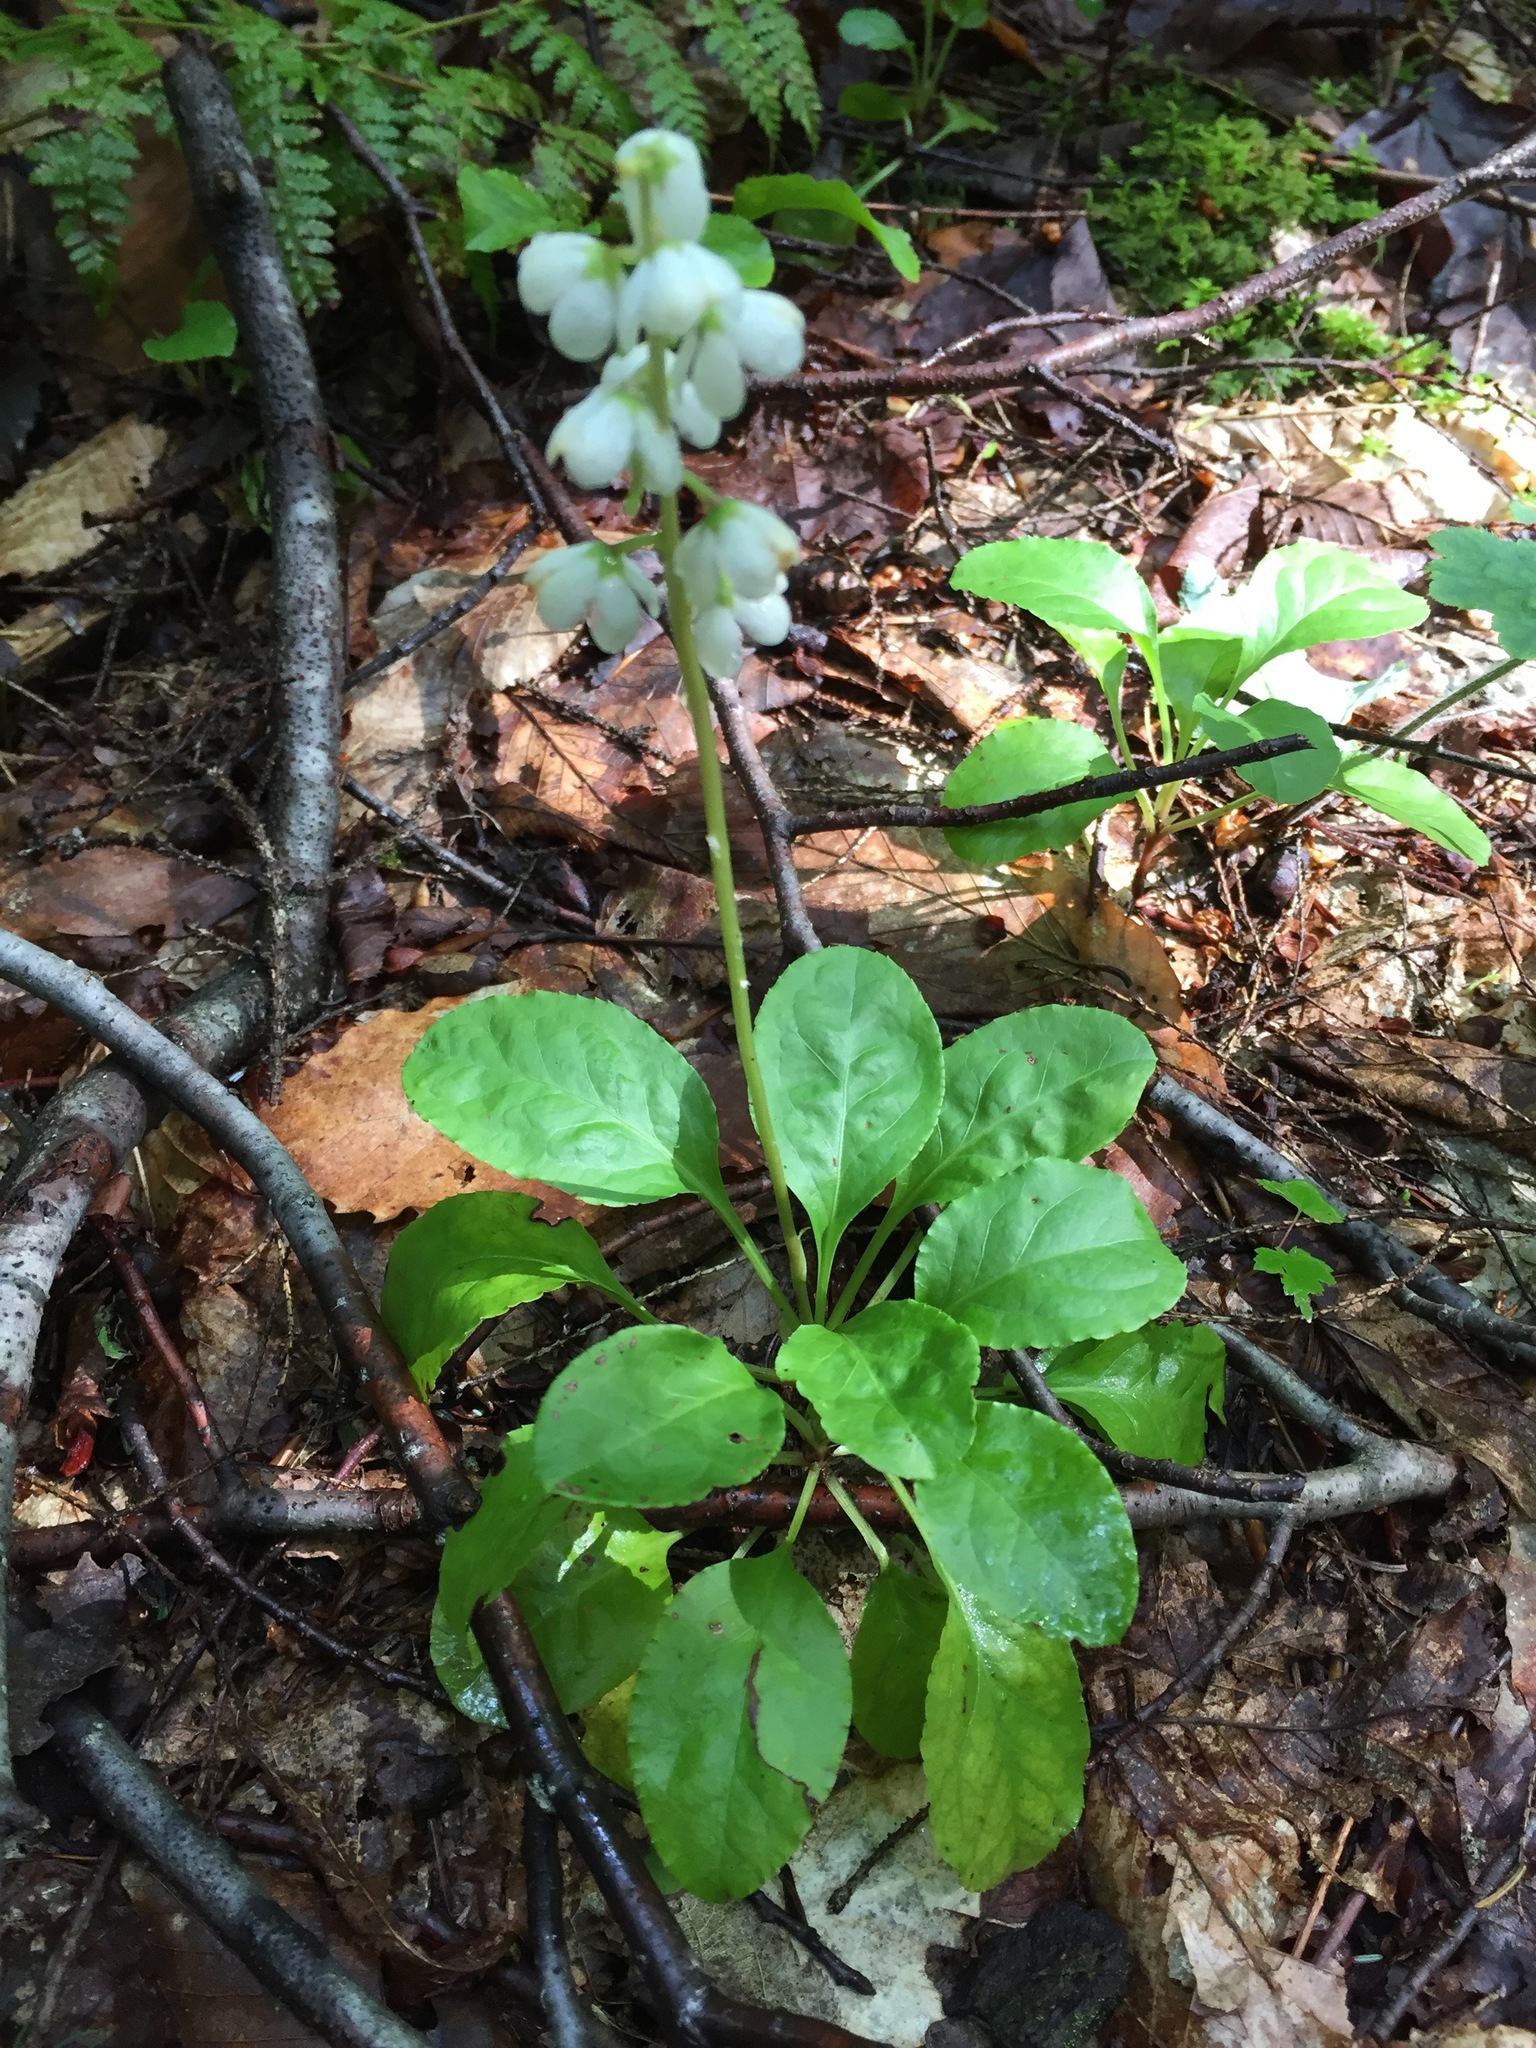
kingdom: Plantae
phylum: Tracheophyta
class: Magnoliopsida
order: Ericales
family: Ericaceae
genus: Pyrola
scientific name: Pyrola elliptica
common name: Shinleaf
